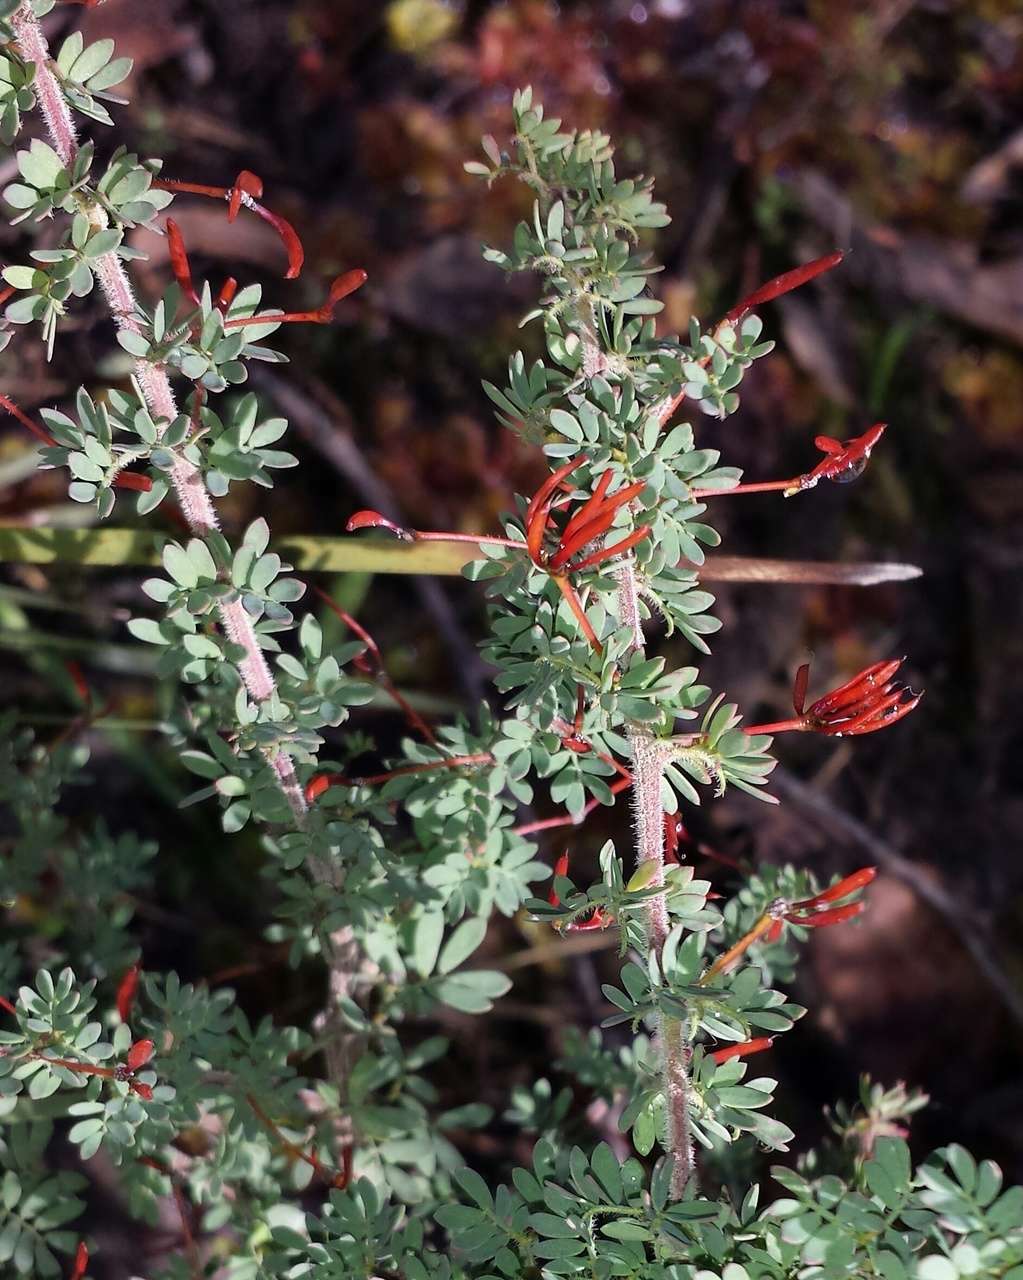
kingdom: Plantae
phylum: Tracheophyta
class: Magnoliopsida
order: Fabales
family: Fabaceae
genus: Acacia
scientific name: Acacia mitchellii
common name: Mitchell's wattle
